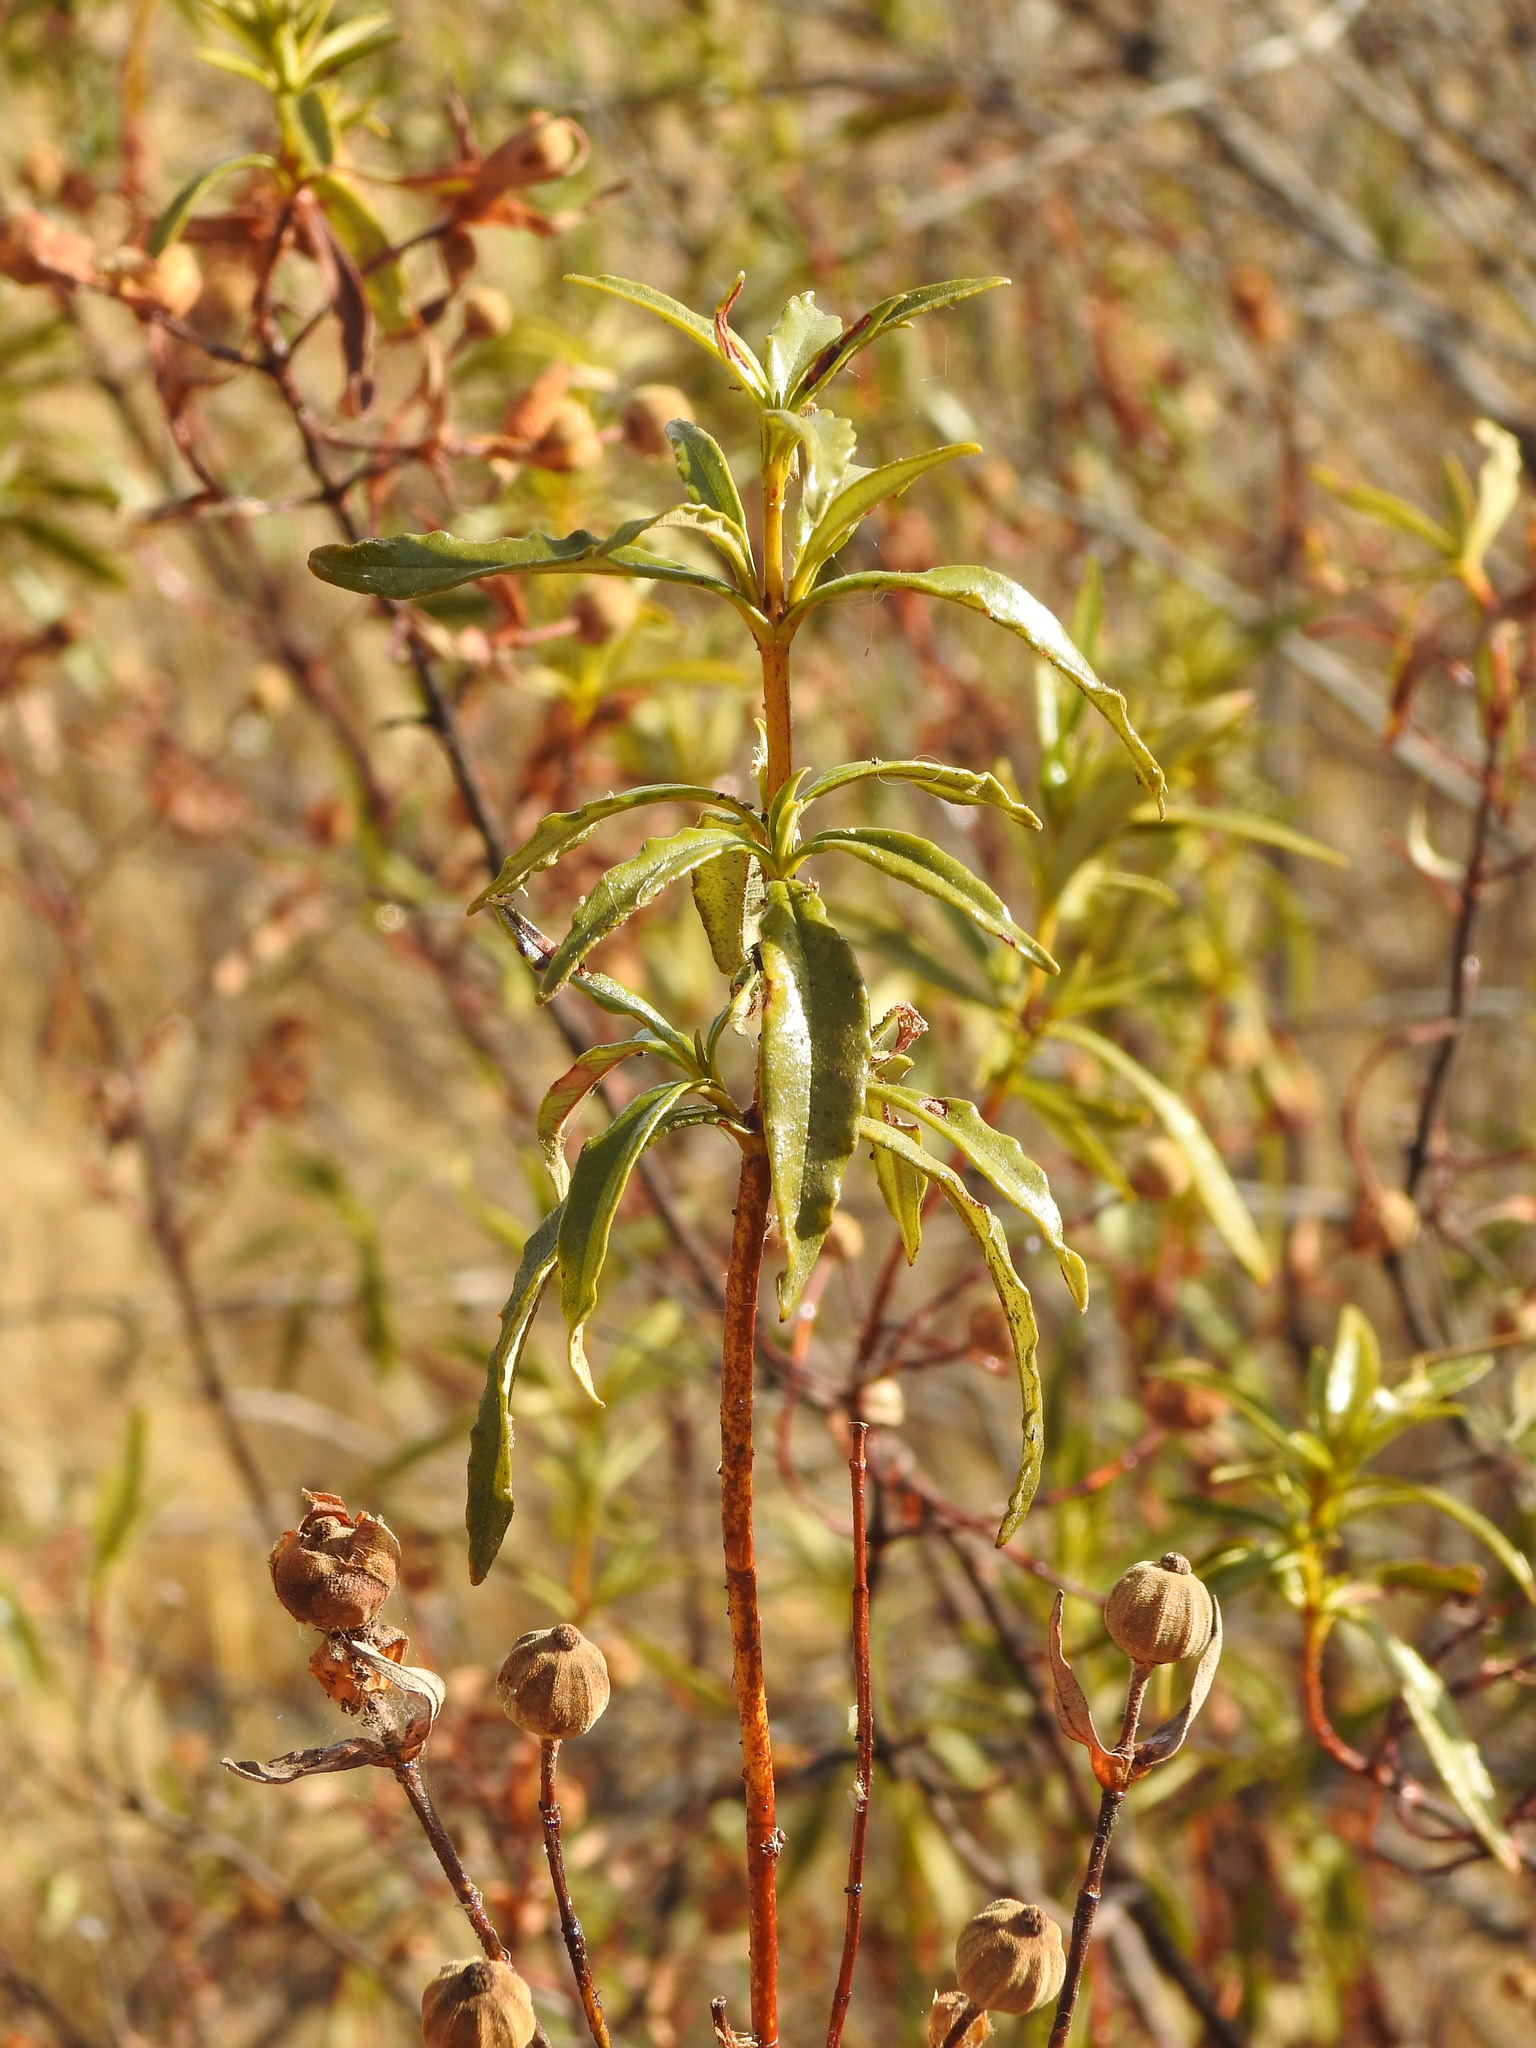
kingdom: Plantae
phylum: Tracheophyta
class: Magnoliopsida
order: Malvales
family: Cistaceae
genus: Cistus
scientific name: Cistus ladanifer
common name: Common gum cistus
